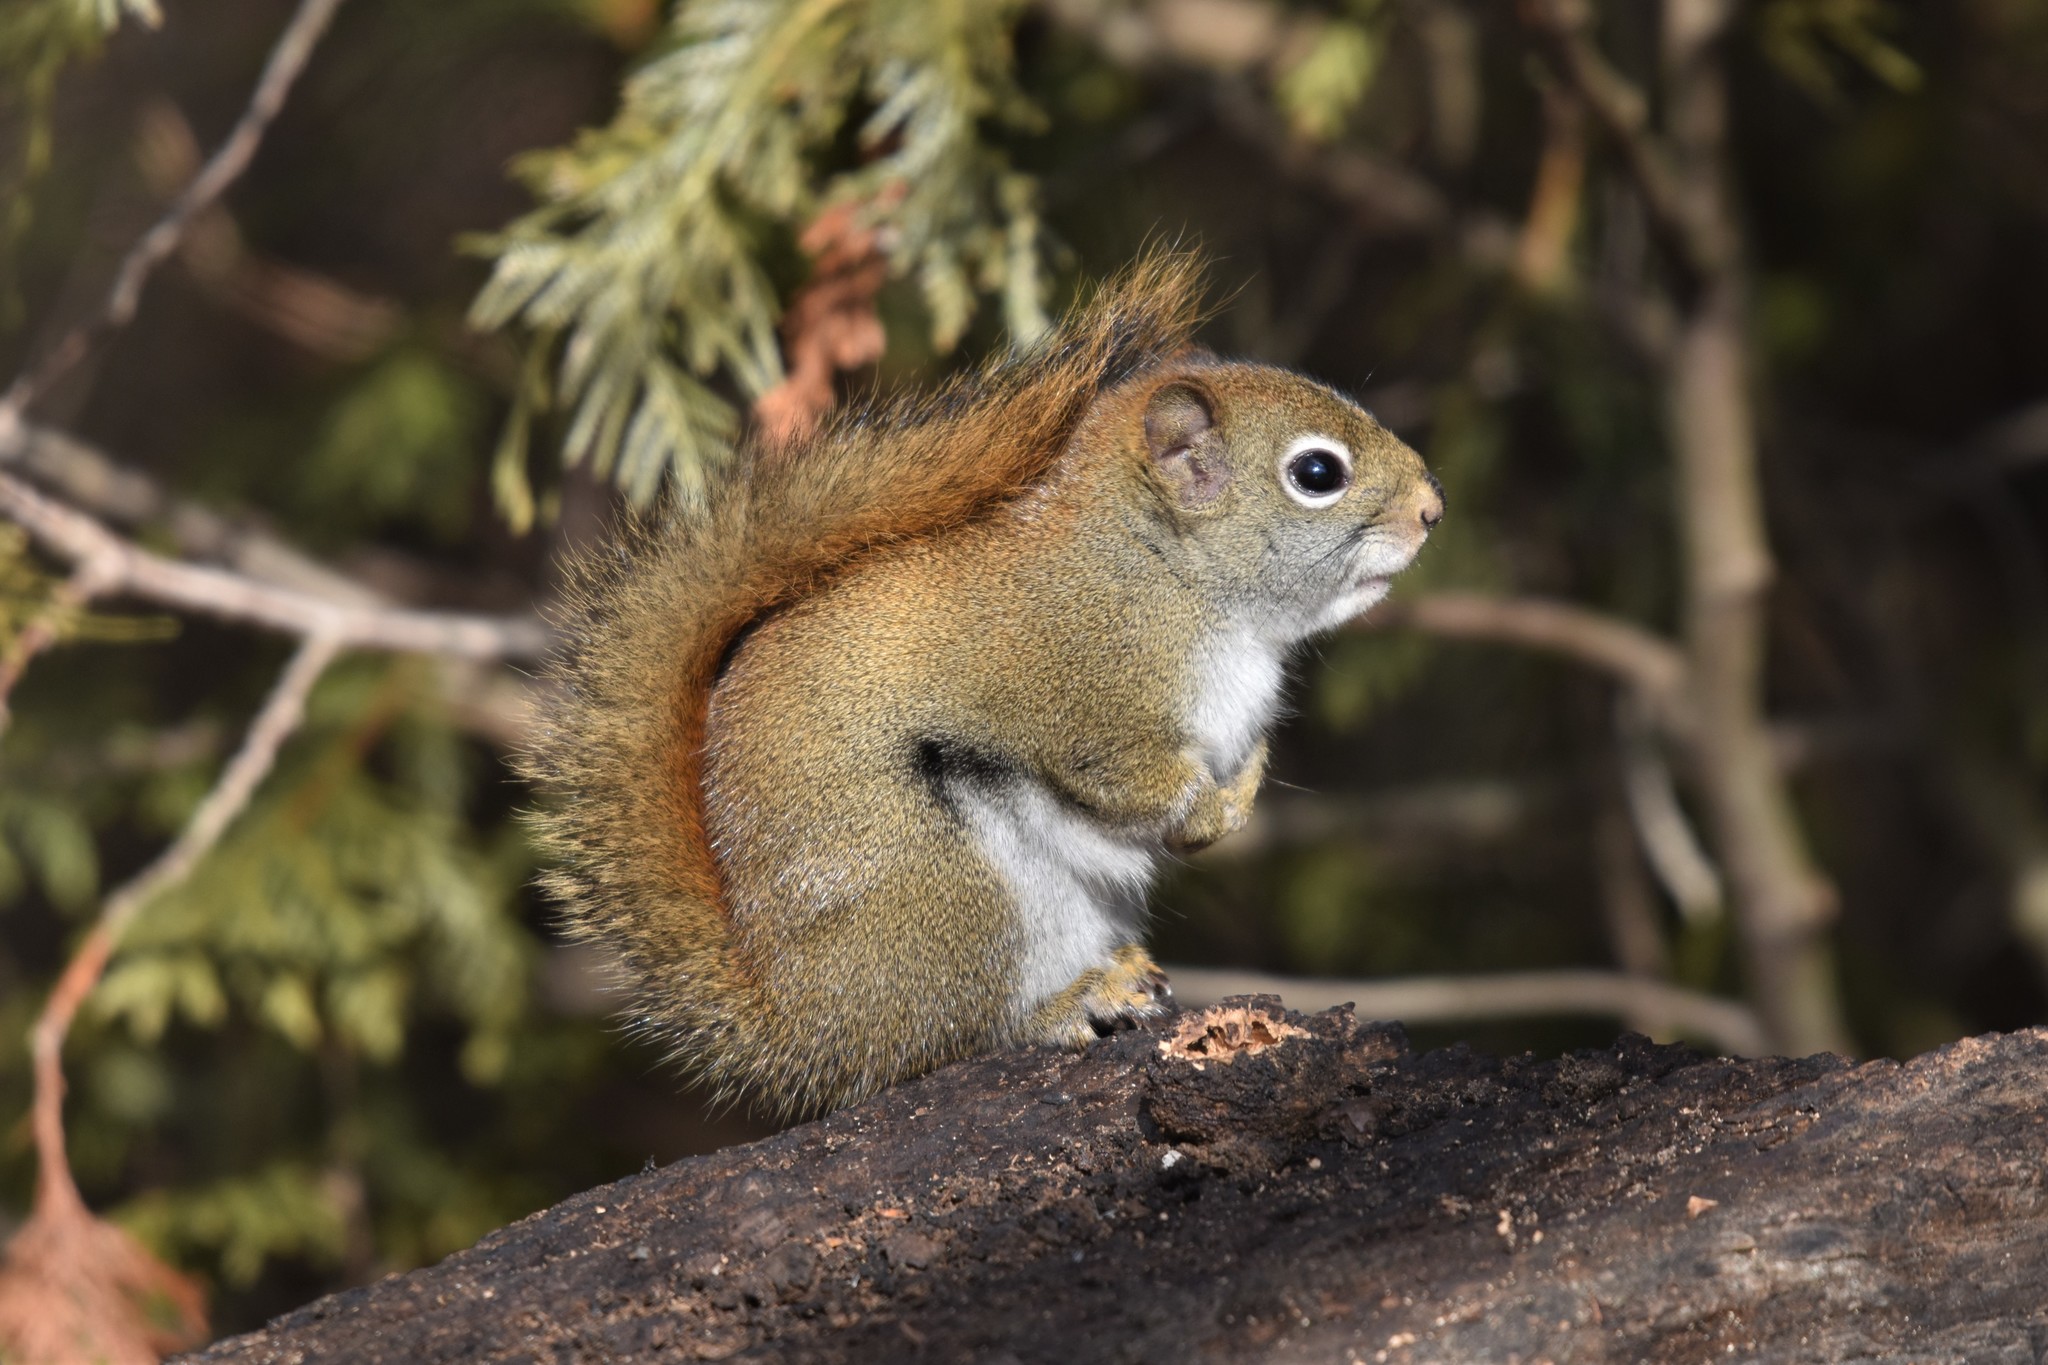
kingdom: Animalia
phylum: Chordata
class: Mammalia
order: Rodentia
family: Sciuridae
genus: Tamiasciurus
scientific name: Tamiasciurus hudsonicus
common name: Red squirrel
